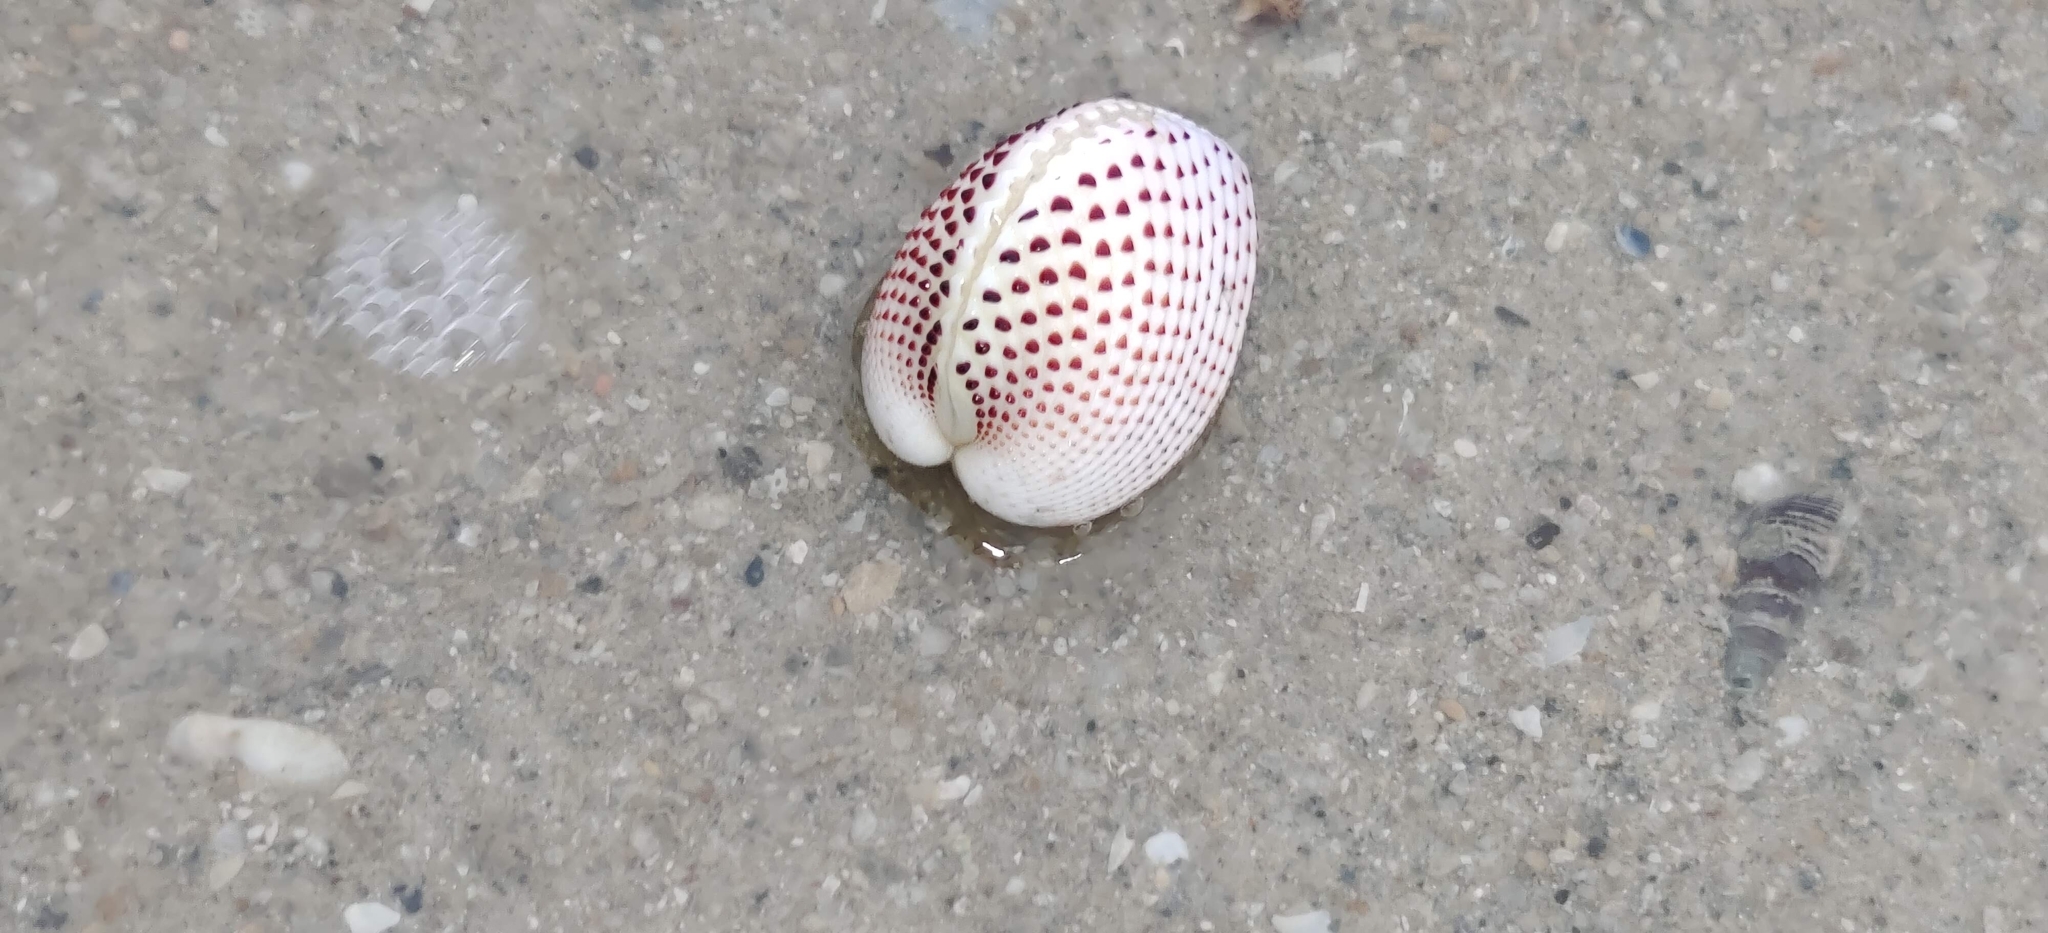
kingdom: Animalia
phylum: Mollusca
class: Bivalvia
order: Cardiida
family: Cardiidae
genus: Fragum
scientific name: Fragum unedo
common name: Strawberry cockle
